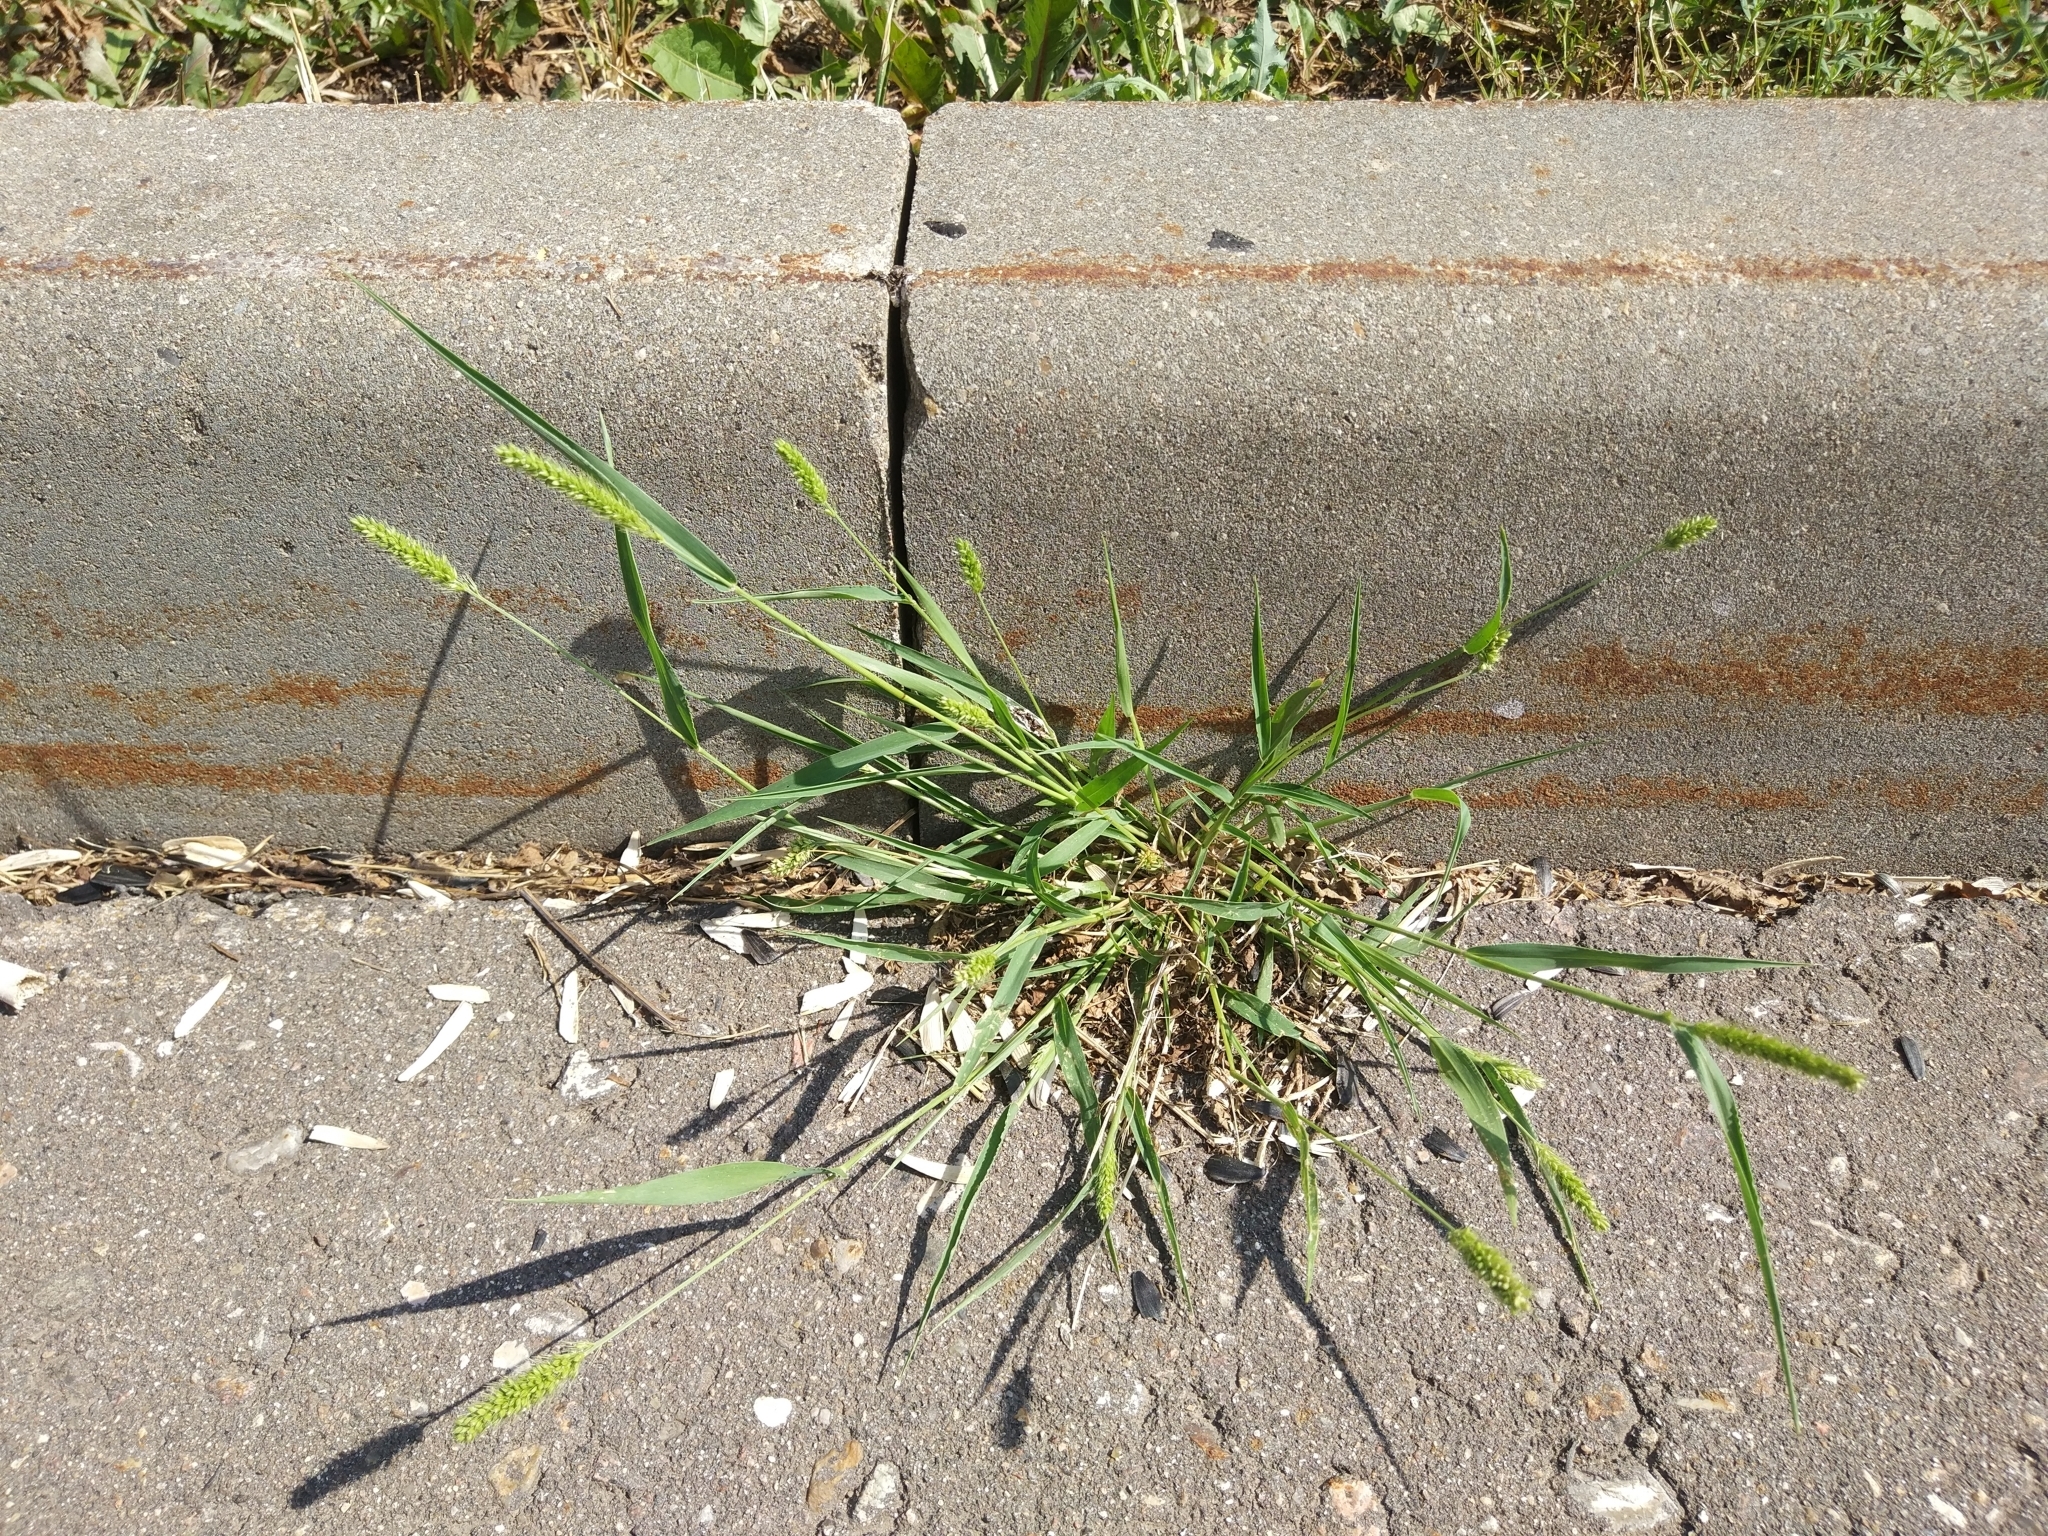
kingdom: Plantae
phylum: Tracheophyta
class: Liliopsida
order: Poales
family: Poaceae
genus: Setaria
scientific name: Setaria viridis
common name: Green bristlegrass
